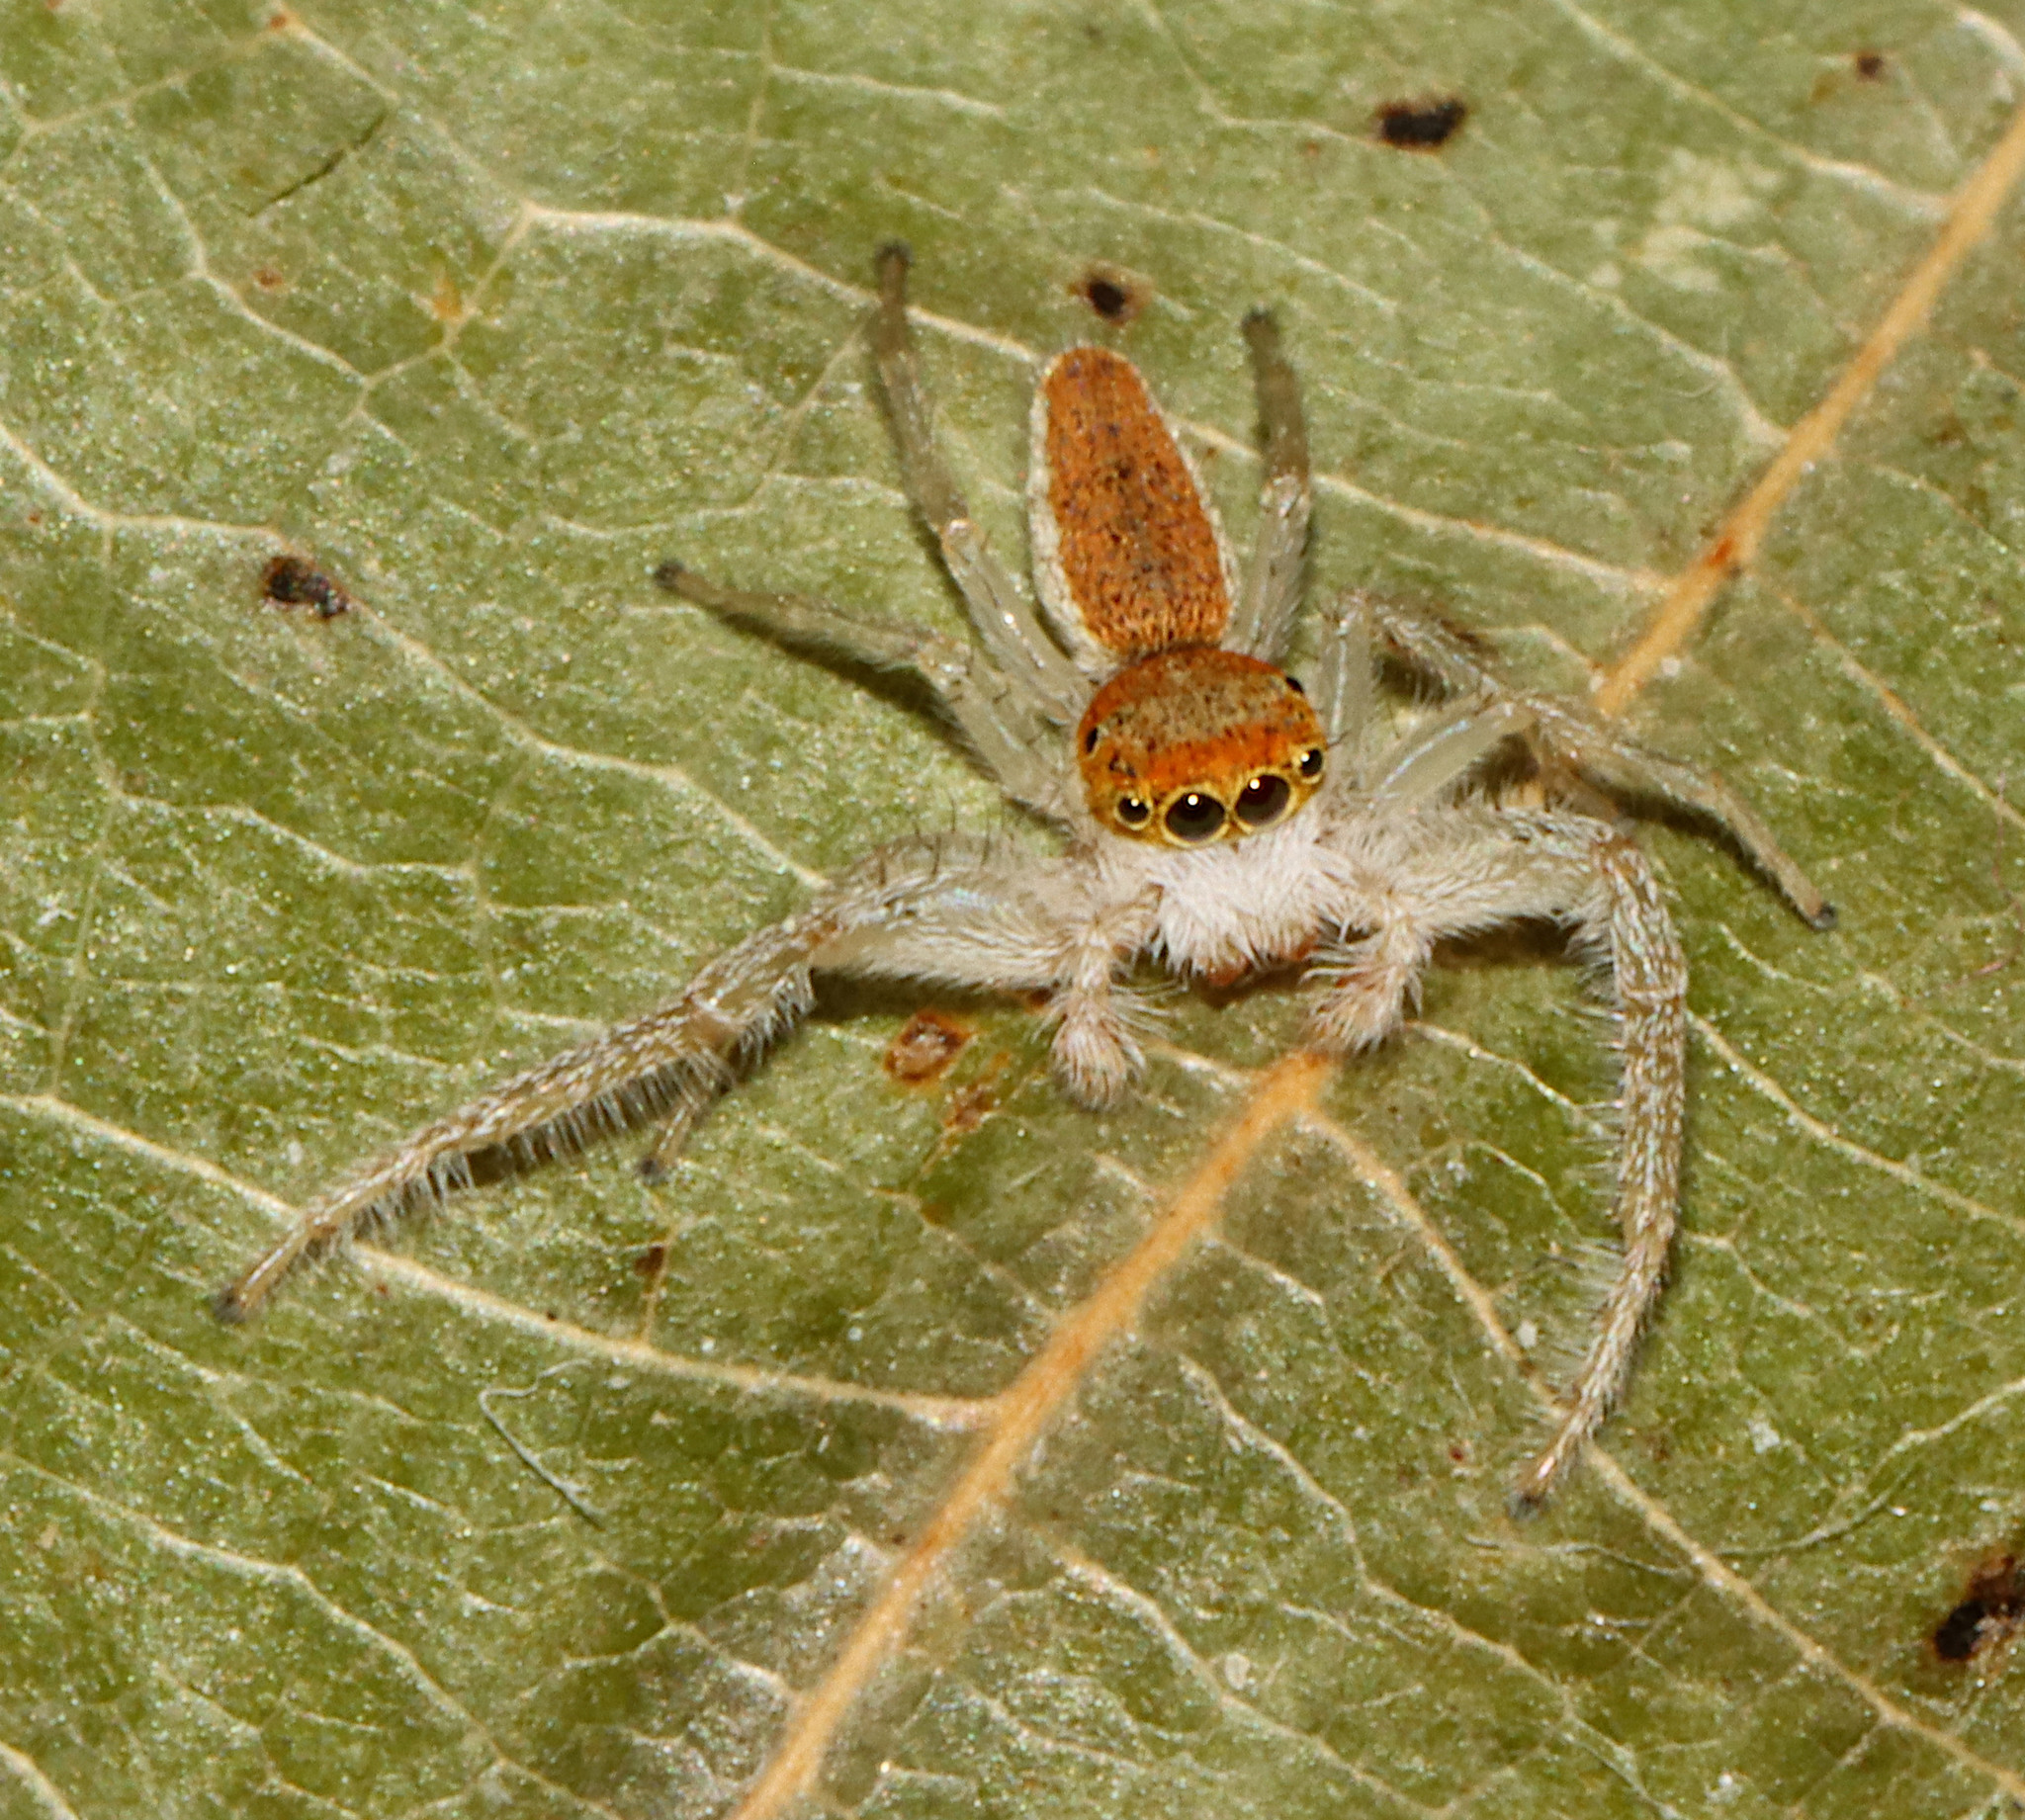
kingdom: Animalia
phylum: Arthropoda
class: Arachnida
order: Araneae
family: Salticidae
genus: Hentzia
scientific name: Hentzia mitrata
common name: White-jawed jumping spider
